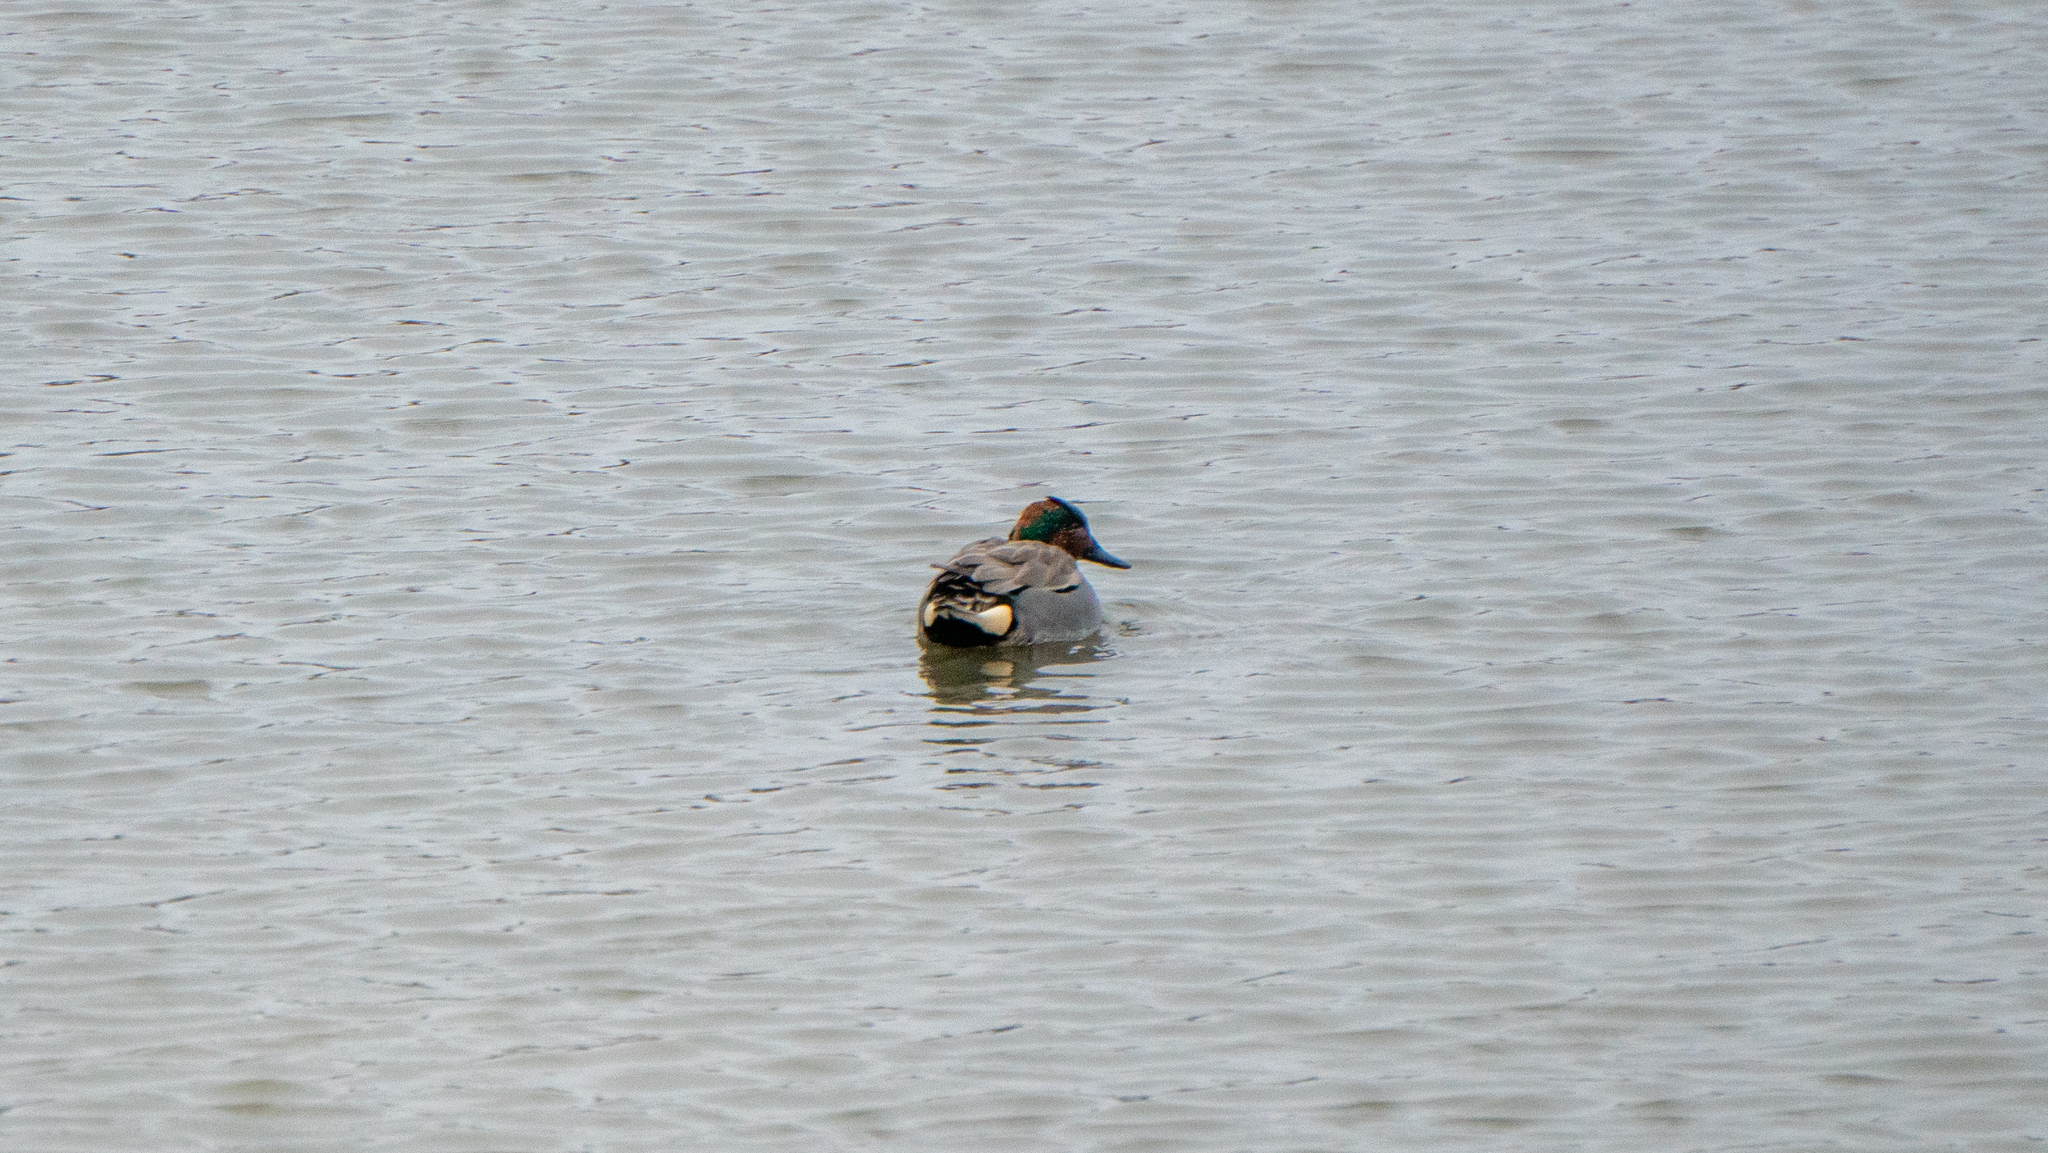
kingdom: Animalia
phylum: Chordata
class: Aves
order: Anseriformes
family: Anatidae
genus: Anas
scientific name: Anas crecca
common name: Eurasian teal
